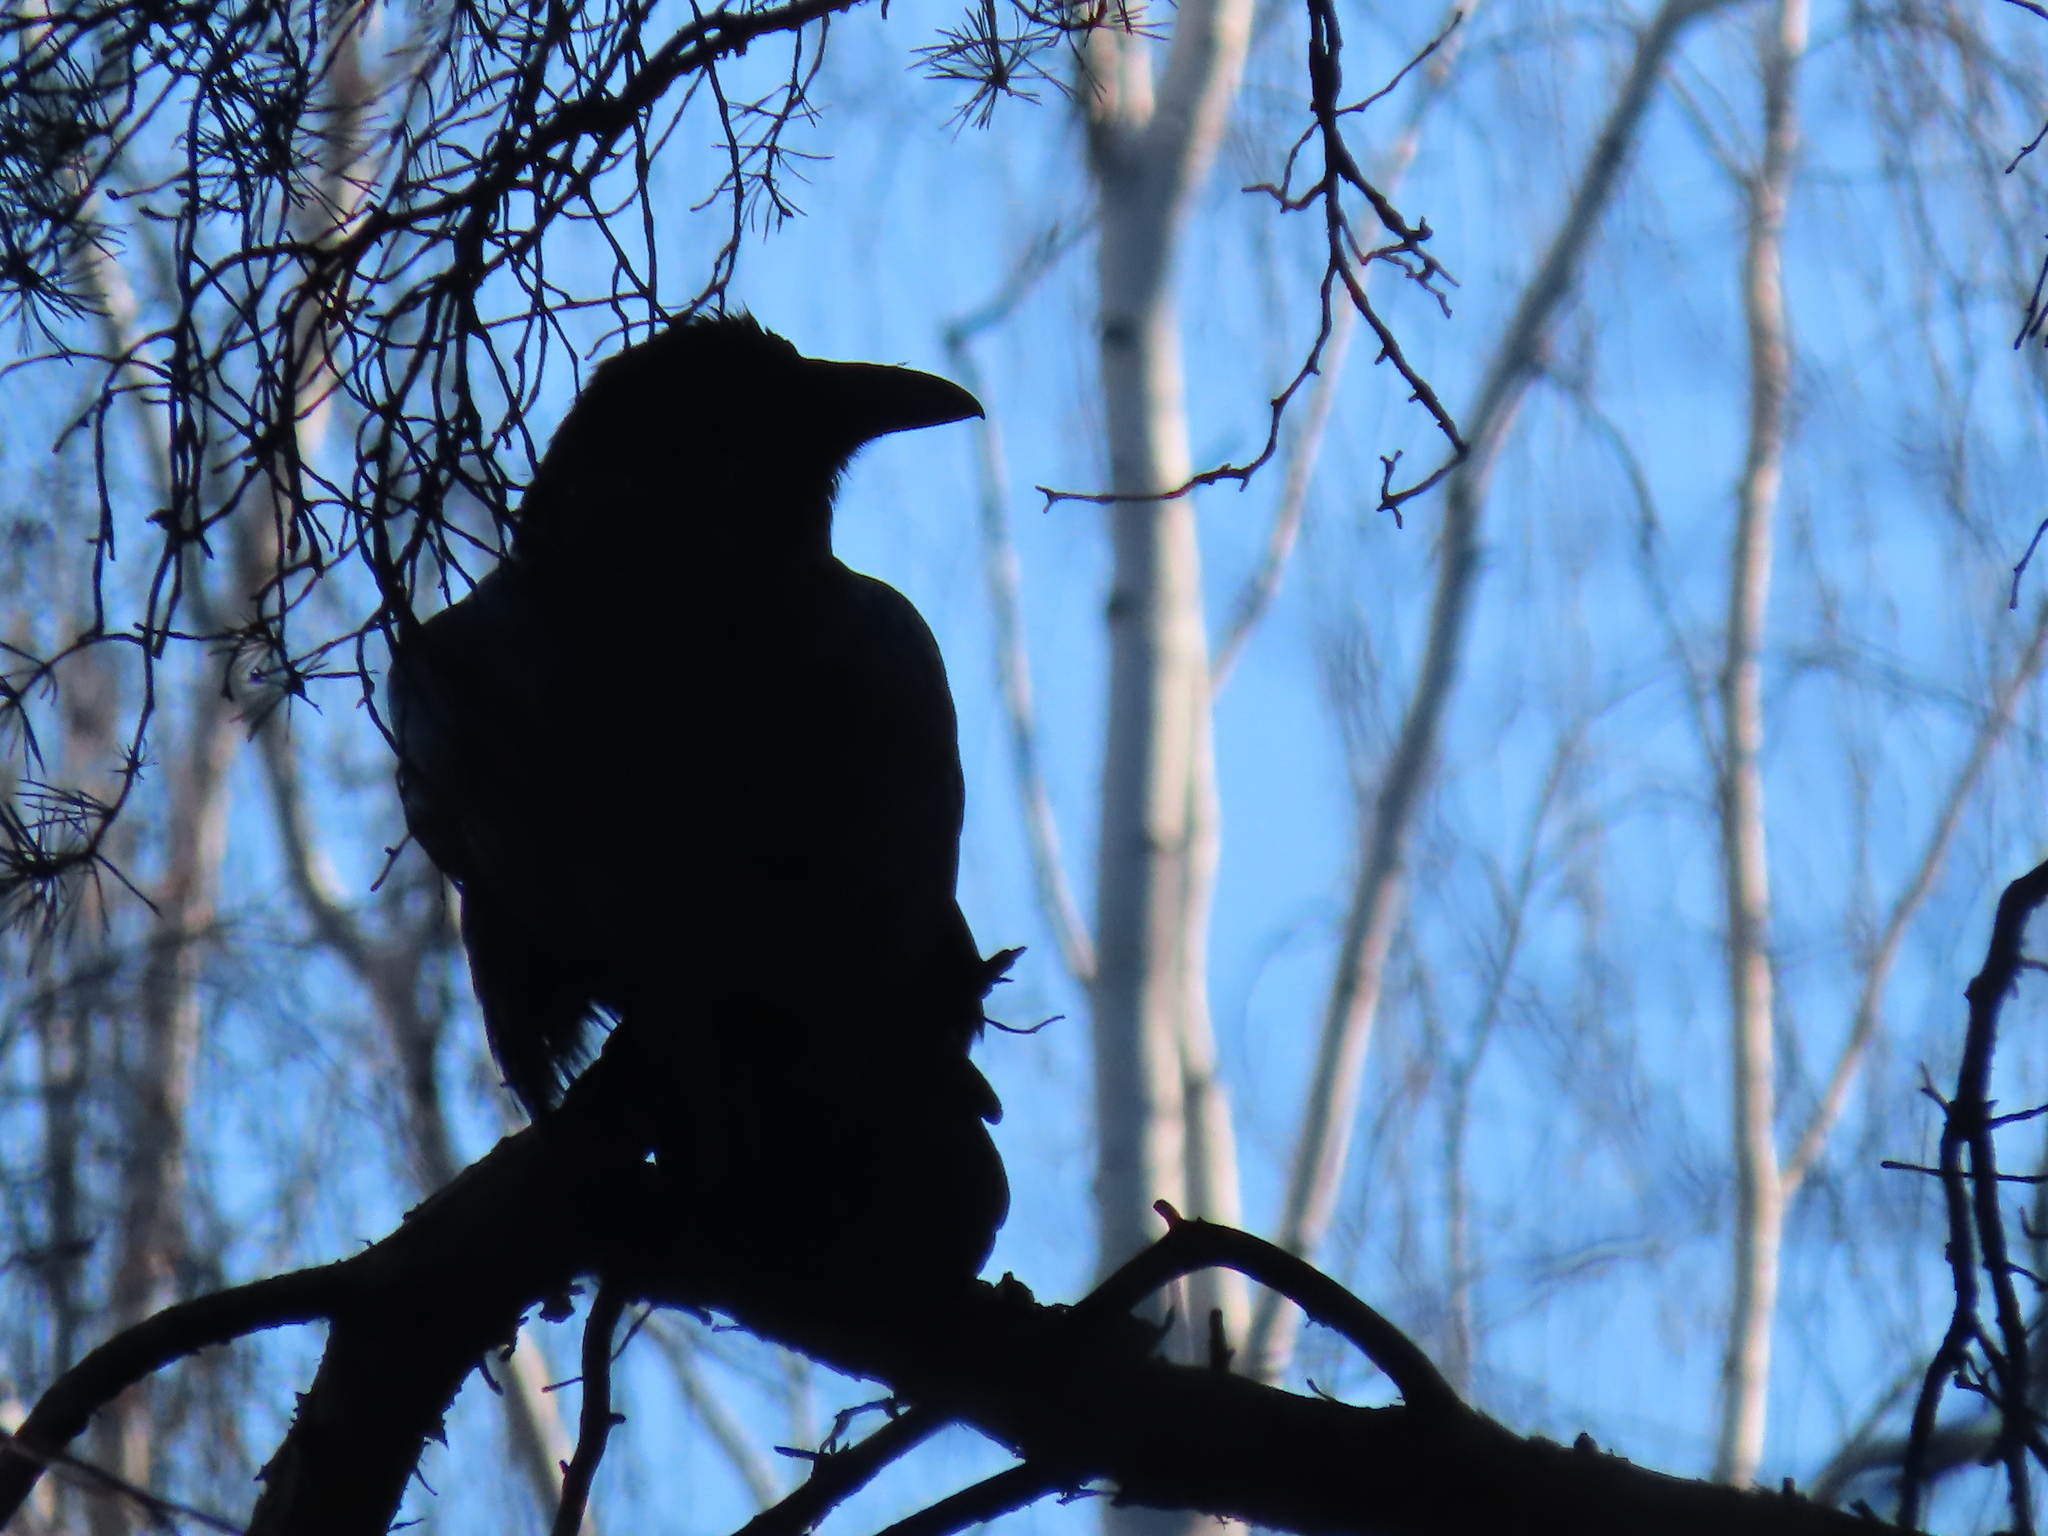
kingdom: Animalia
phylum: Chordata
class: Aves
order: Passeriformes
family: Corvidae
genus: Corvus
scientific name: Corvus corax
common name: Common raven
